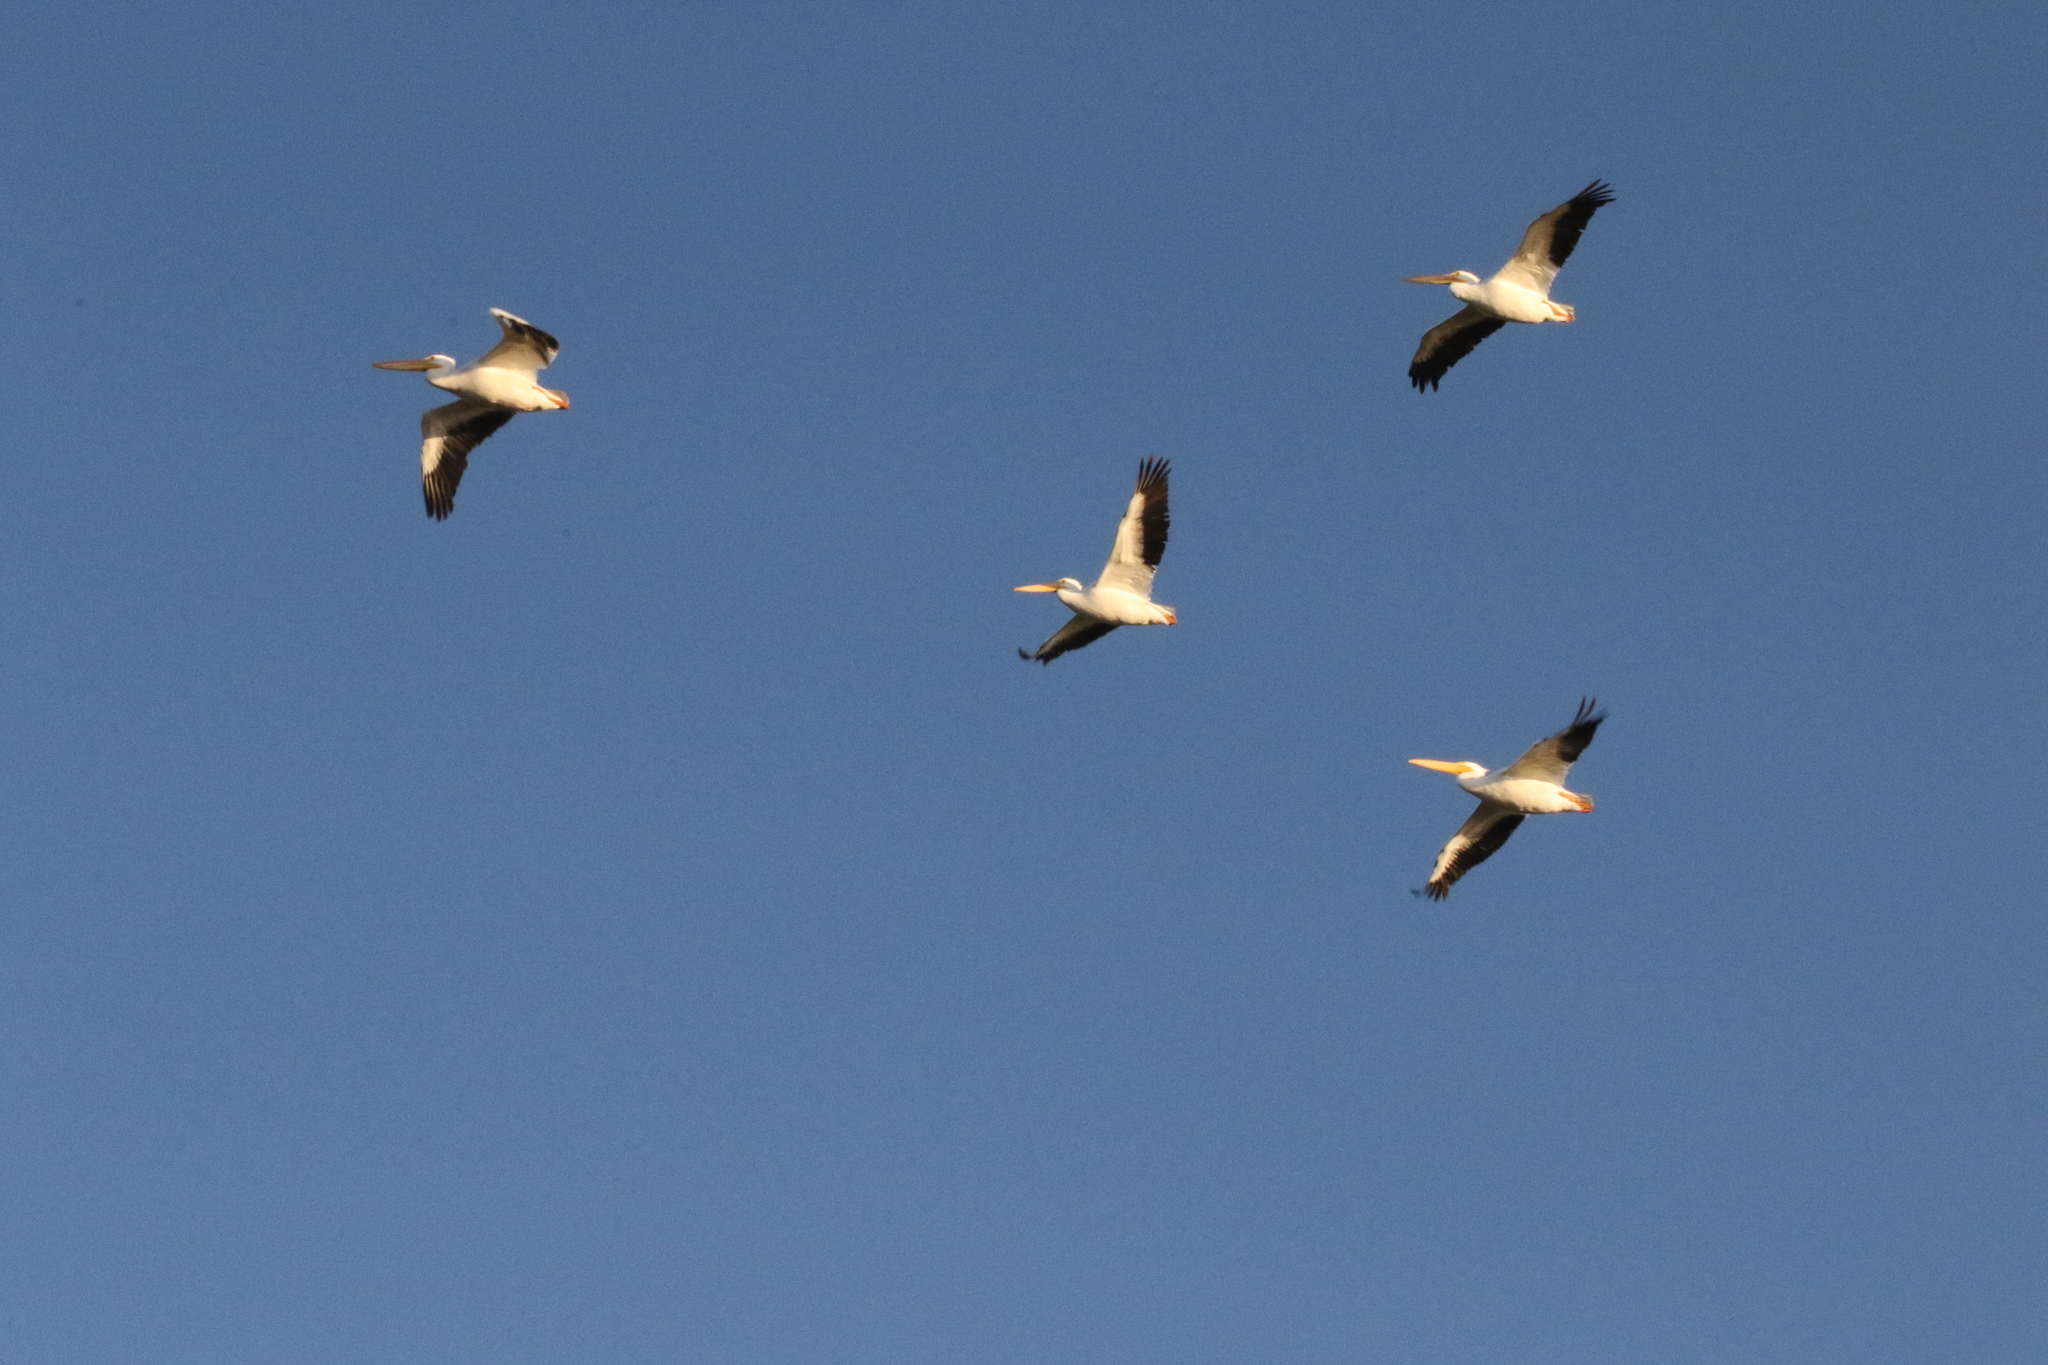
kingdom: Animalia
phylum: Chordata
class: Aves
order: Pelecaniformes
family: Pelecanidae
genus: Pelecanus
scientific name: Pelecanus erythrorhynchos
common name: American white pelican
